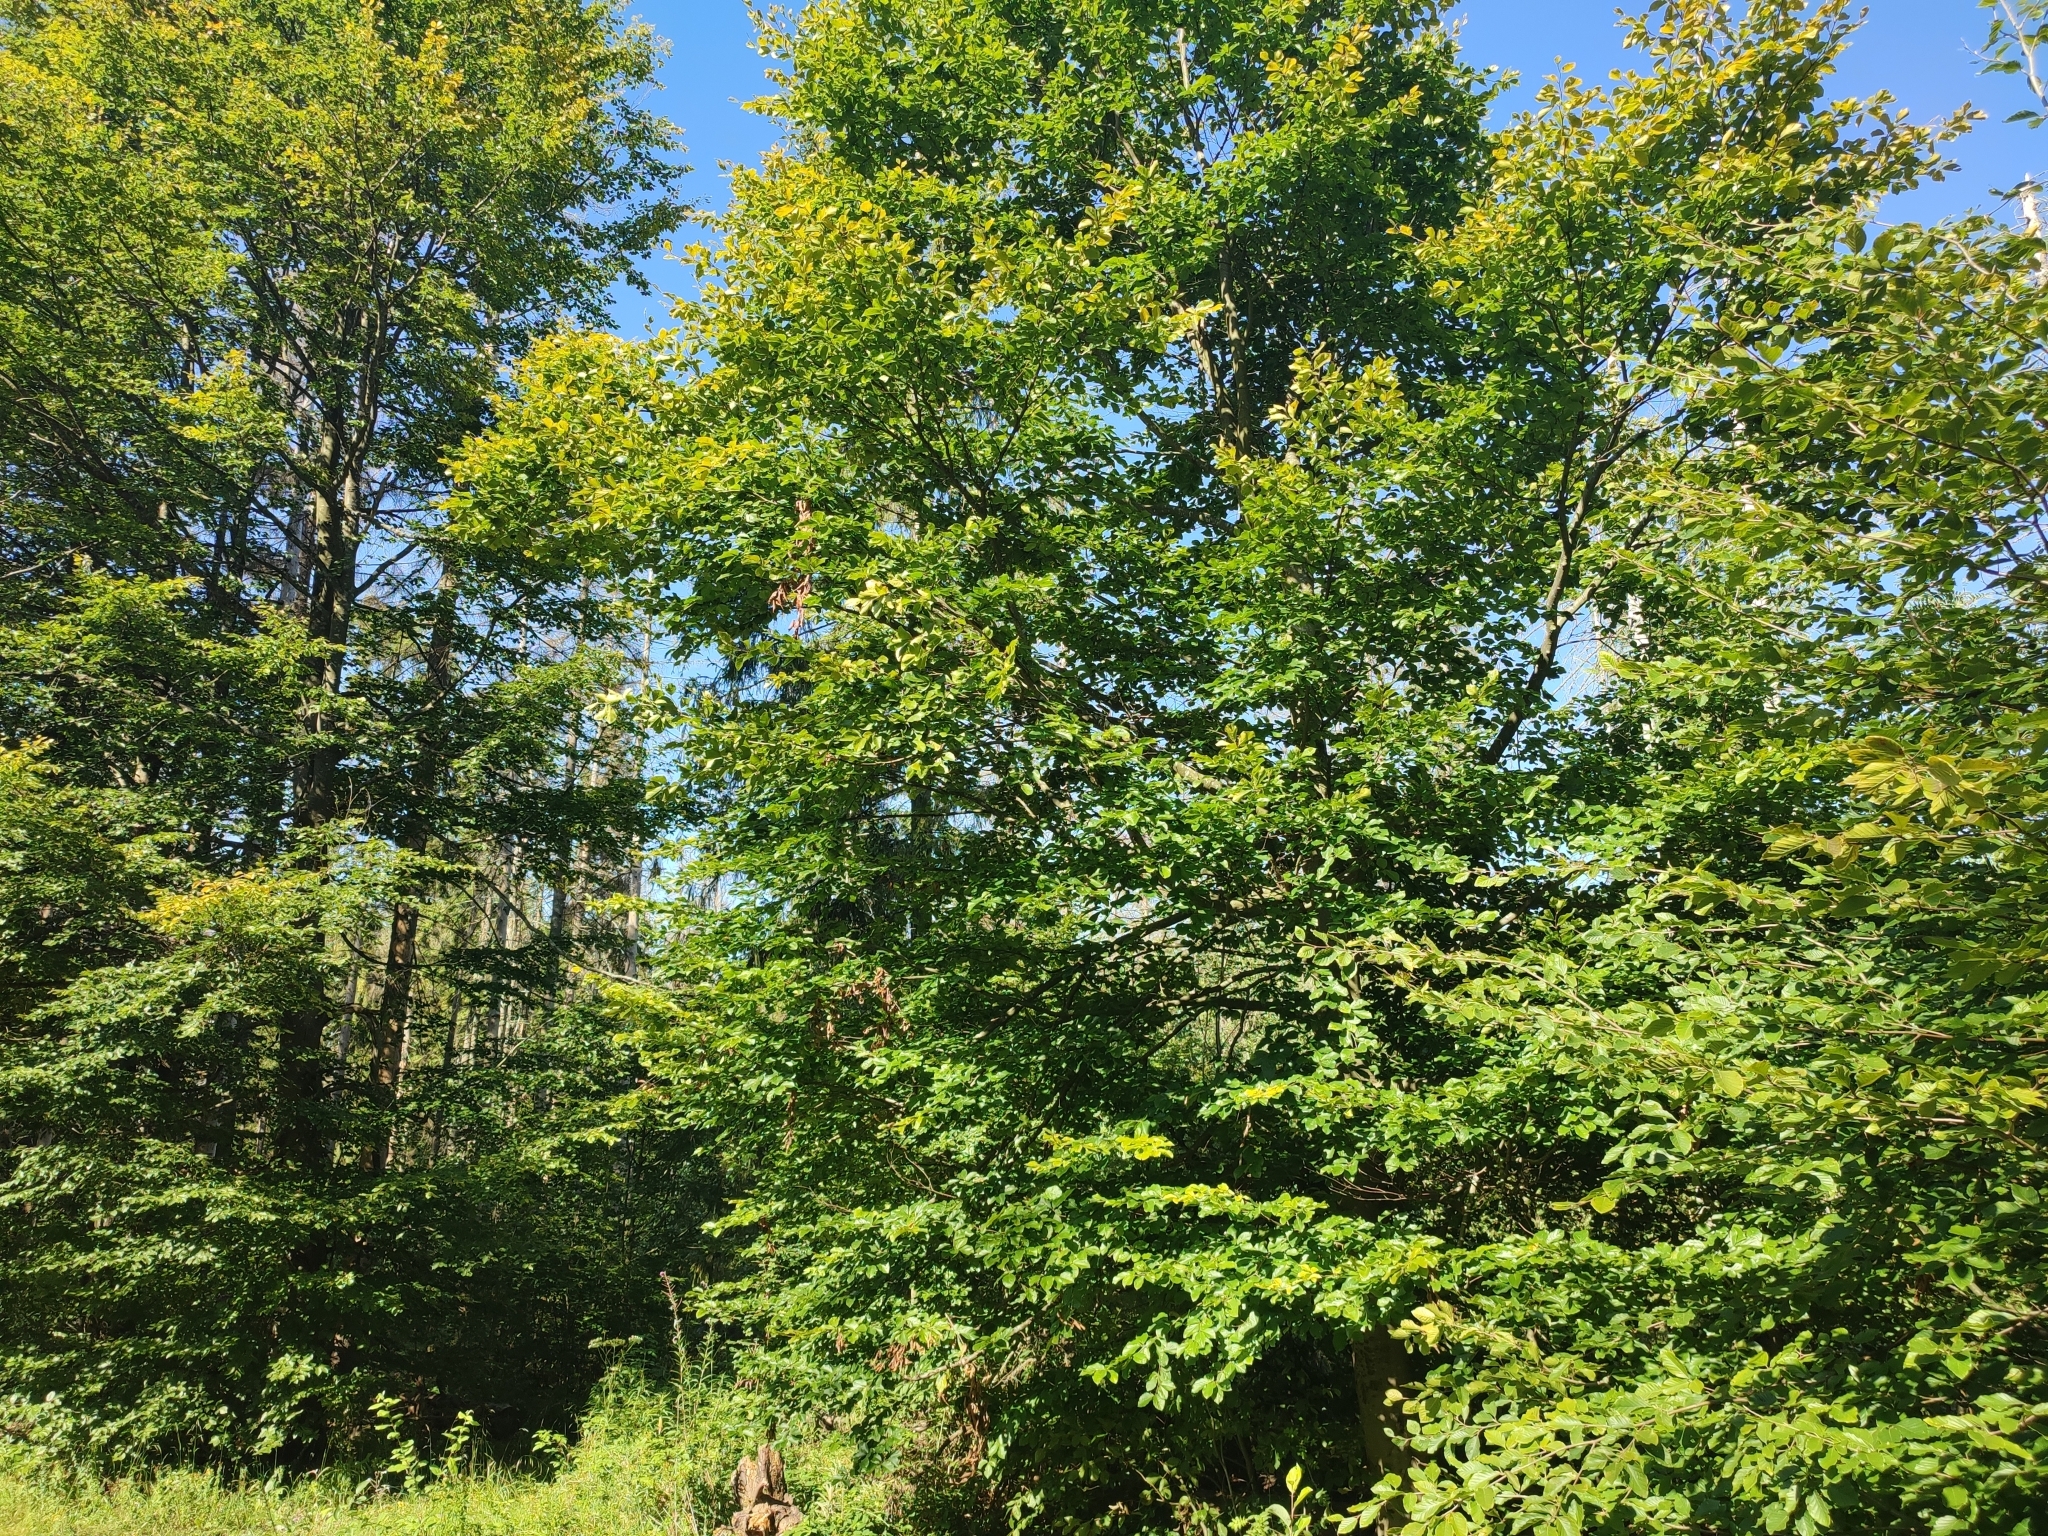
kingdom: Plantae
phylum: Tracheophyta
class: Magnoliopsida
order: Fagales
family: Fagaceae
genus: Fagus
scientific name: Fagus sylvatica
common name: Beech
